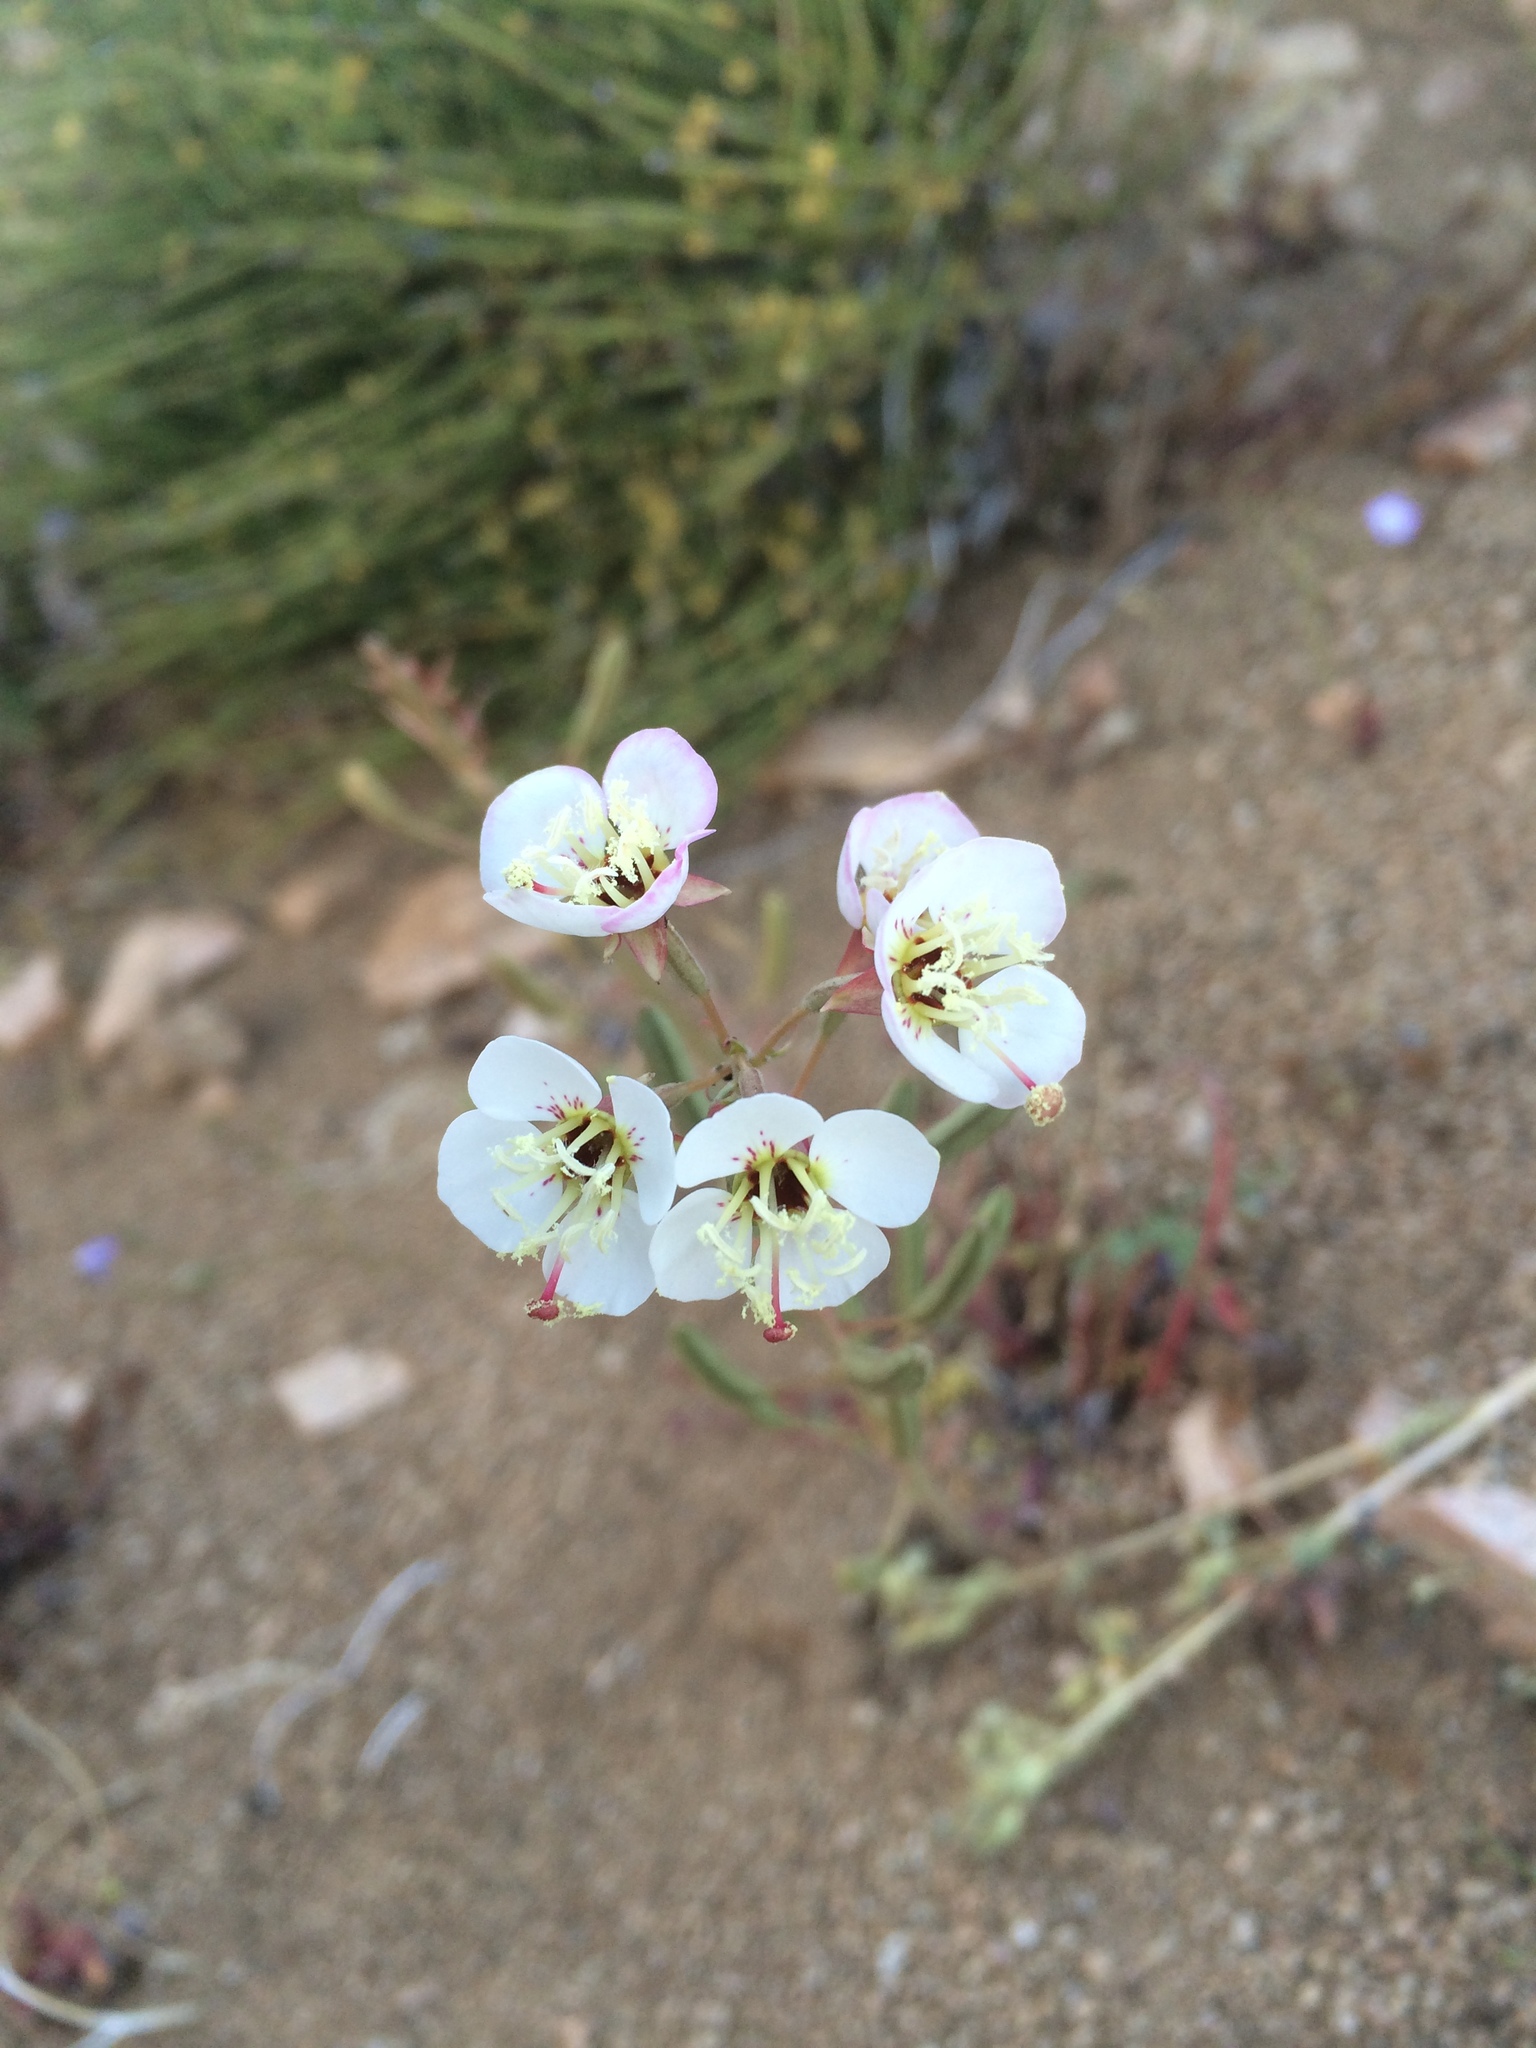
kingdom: Plantae
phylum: Tracheophyta
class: Magnoliopsida
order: Myrtales
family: Onagraceae
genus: Chylismia
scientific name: Chylismia claviformis
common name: Browneyes
